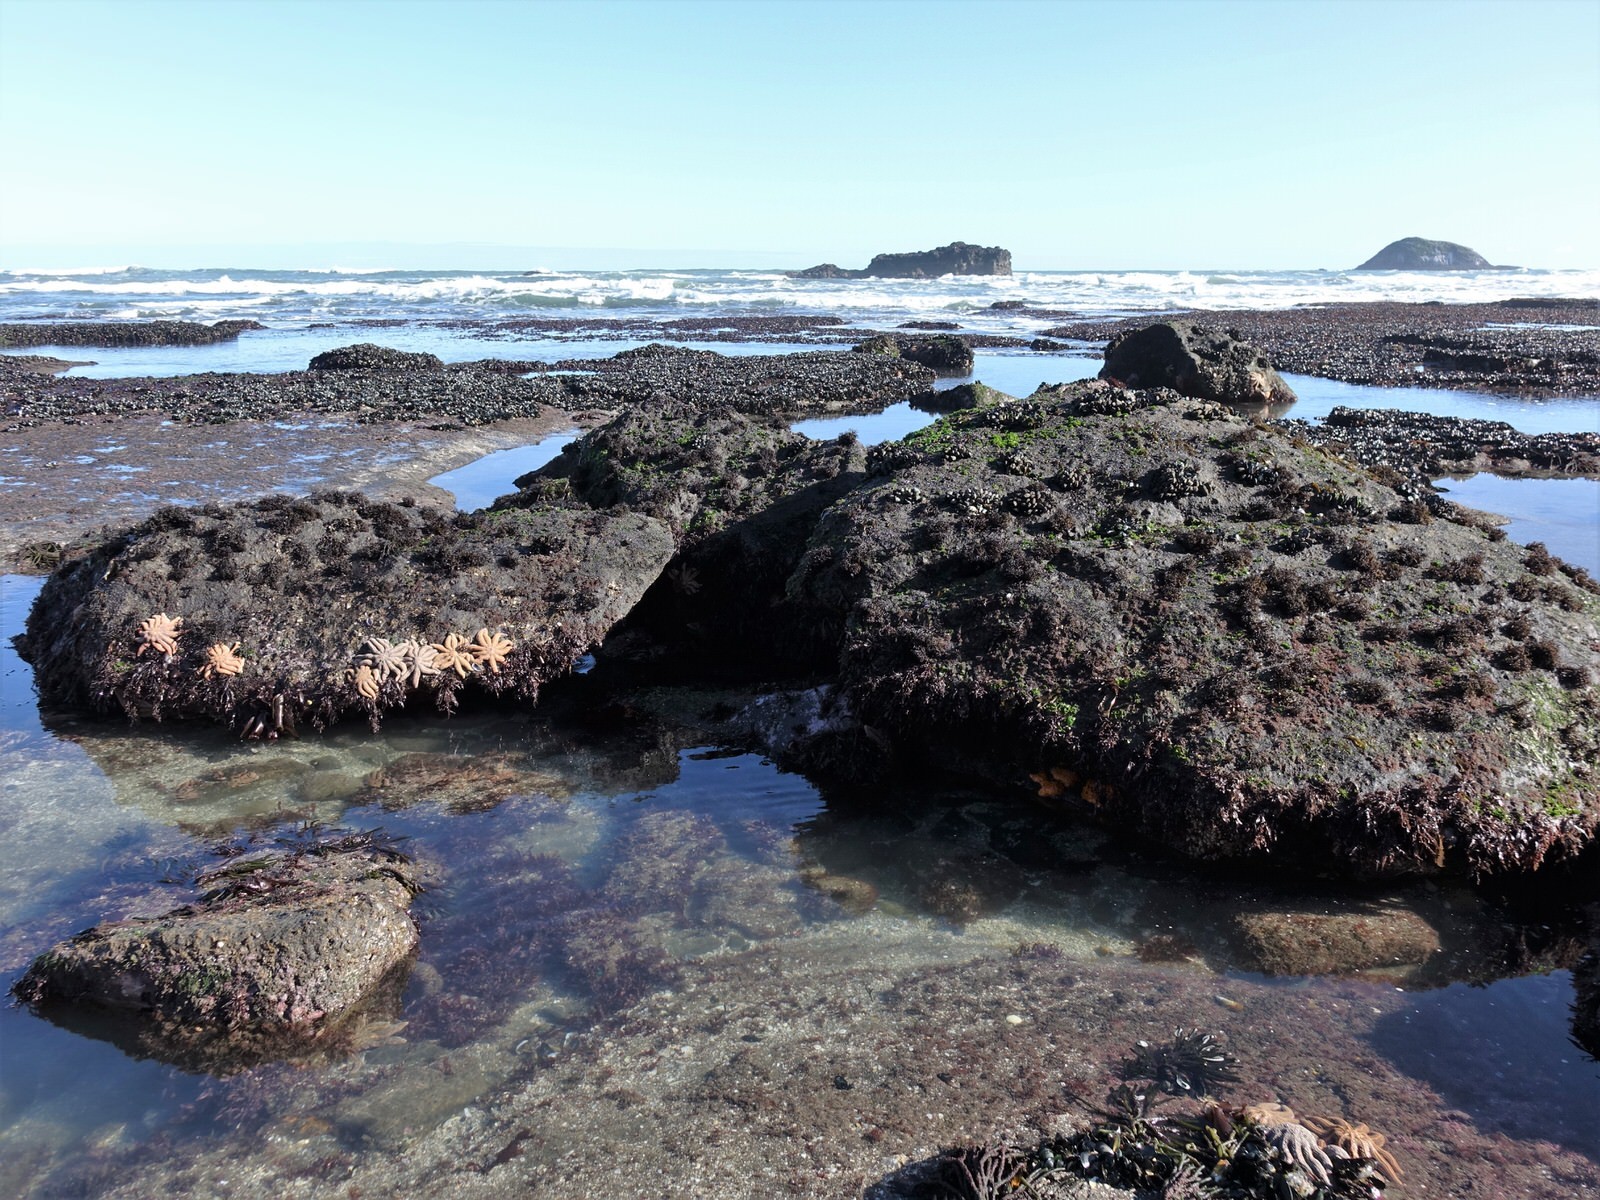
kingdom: Animalia
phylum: Porifera
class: Demospongiae
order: Polymastiida
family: Polymastiidae
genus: Polymastia
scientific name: Polymastia aurantia
